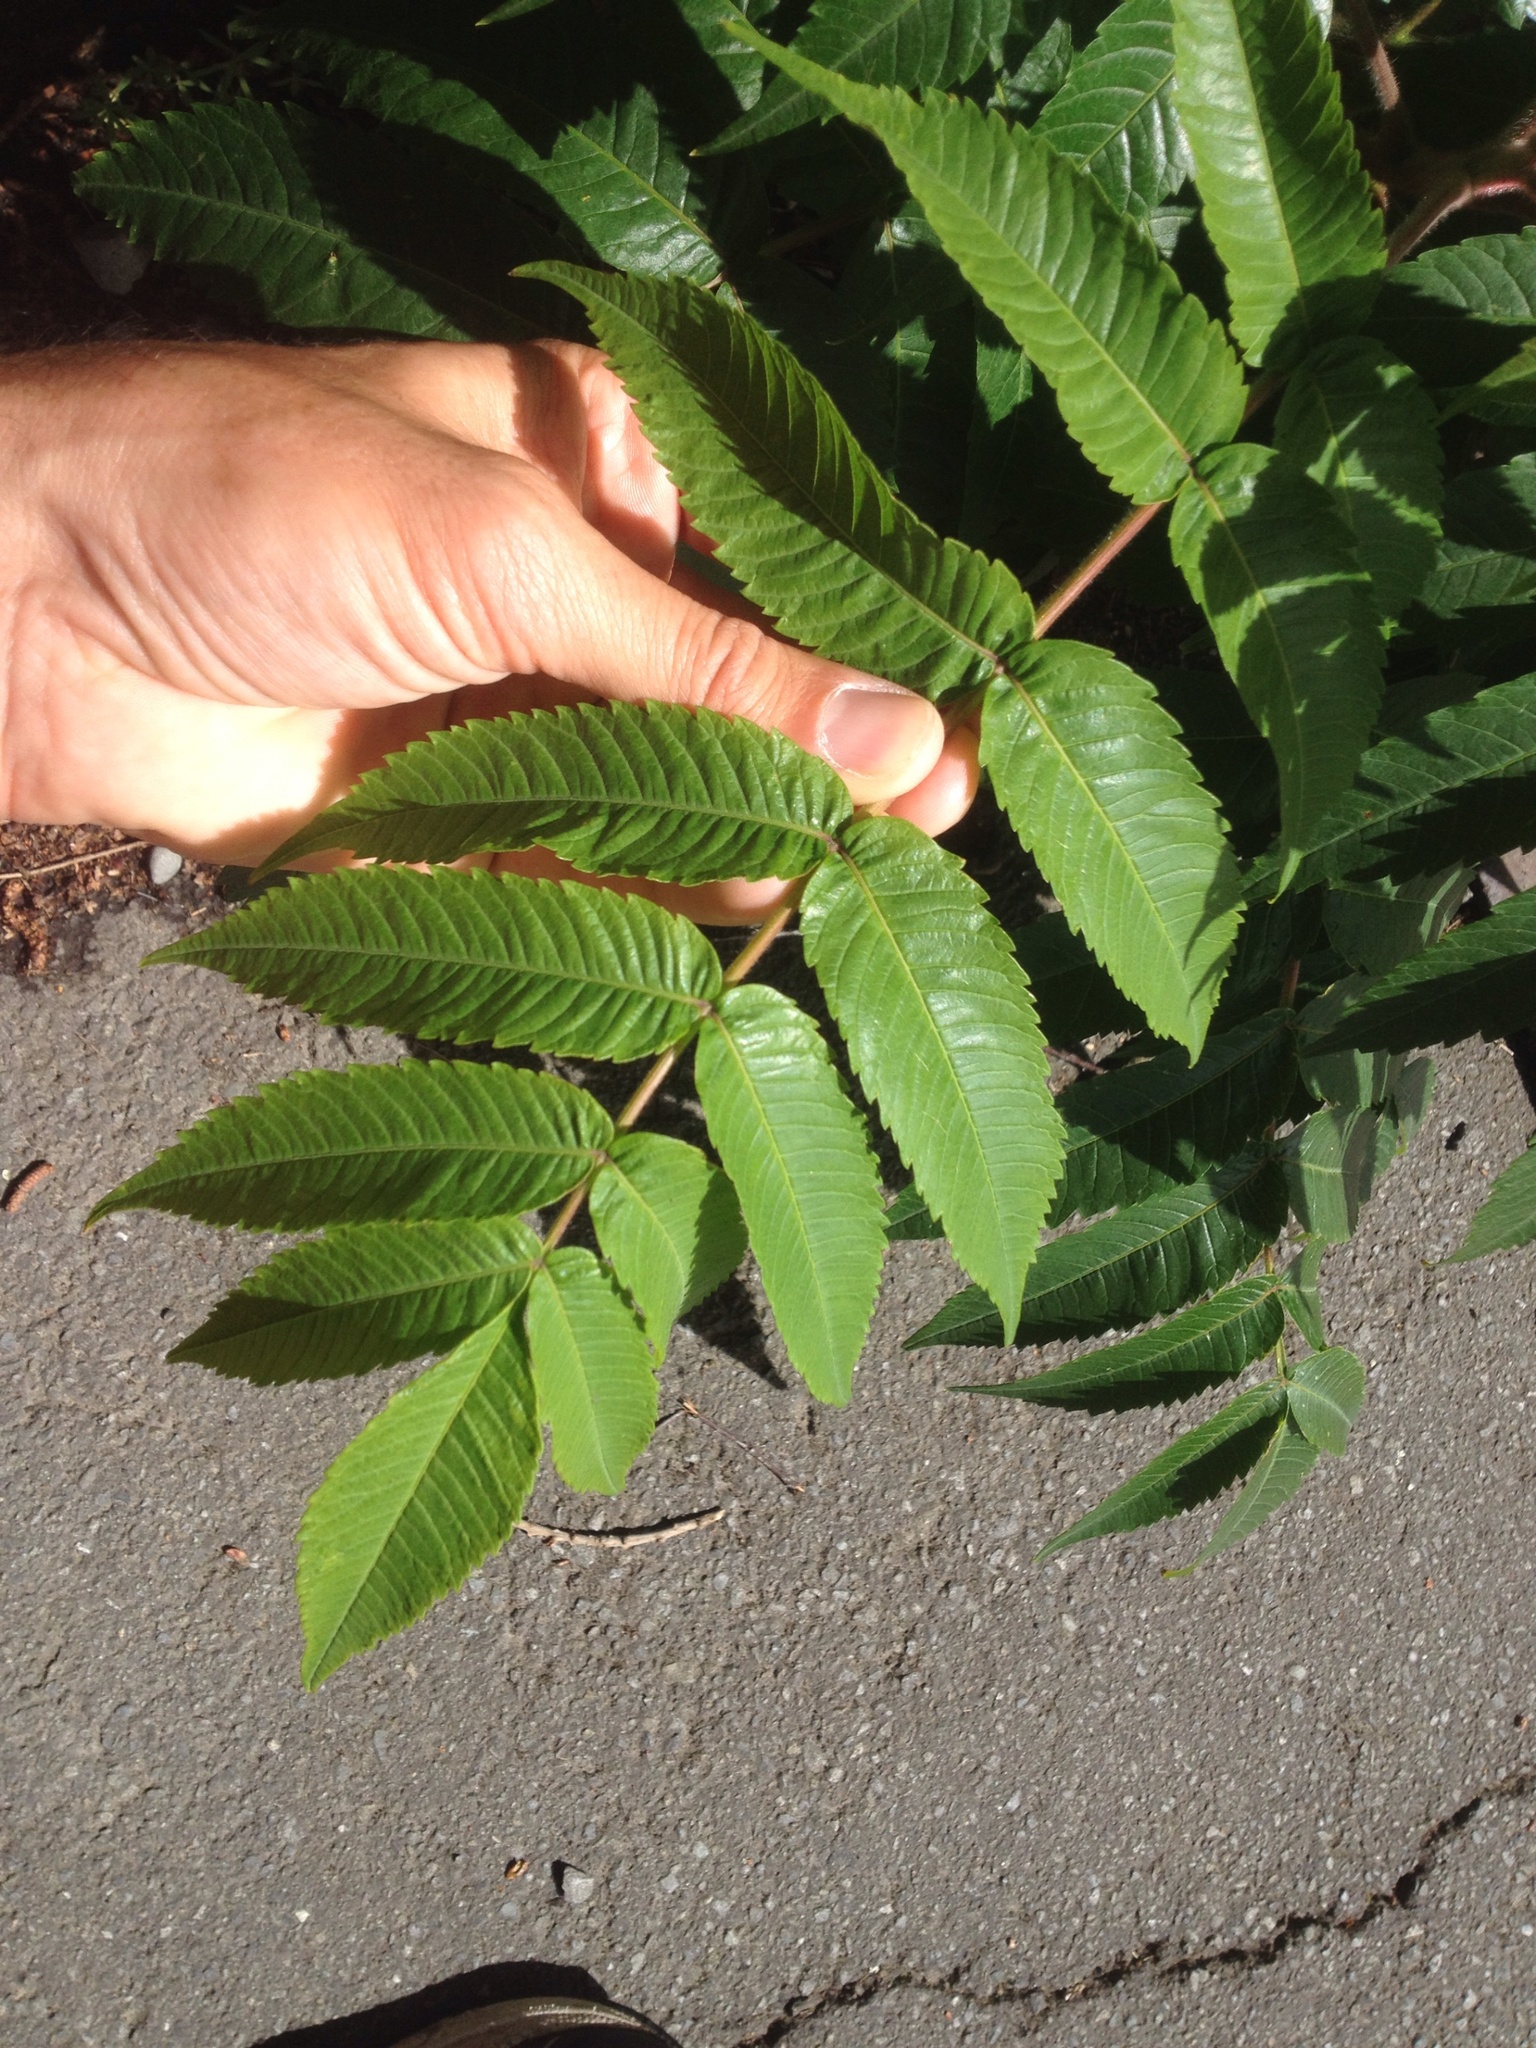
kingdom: Plantae
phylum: Tracheophyta
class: Magnoliopsida
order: Sapindales
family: Anacardiaceae
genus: Rhus
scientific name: Rhus typhina
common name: Staghorn sumac
